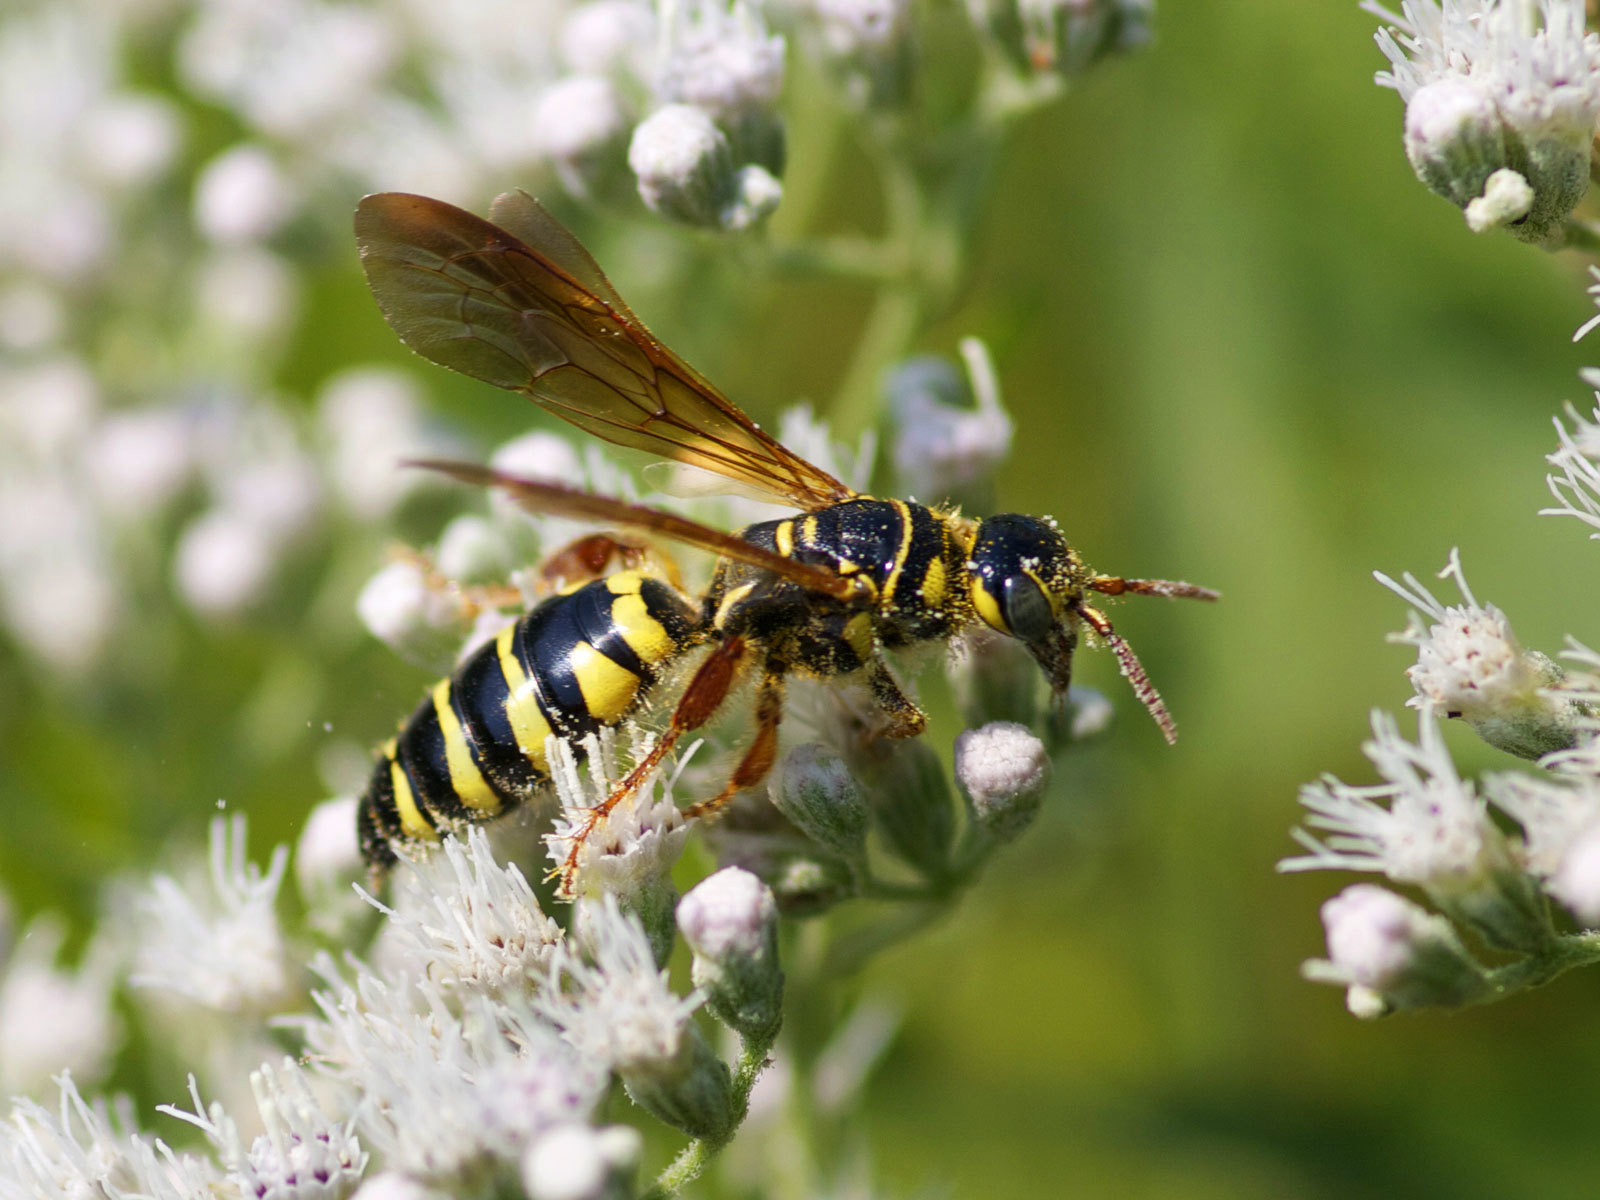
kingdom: Animalia
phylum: Arthropoda
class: Insecta
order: Hymenoptera
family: Tiphiidae
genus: Myzinum
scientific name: Myzinum quinquecinctum
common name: Five-banded thynnid wasp
